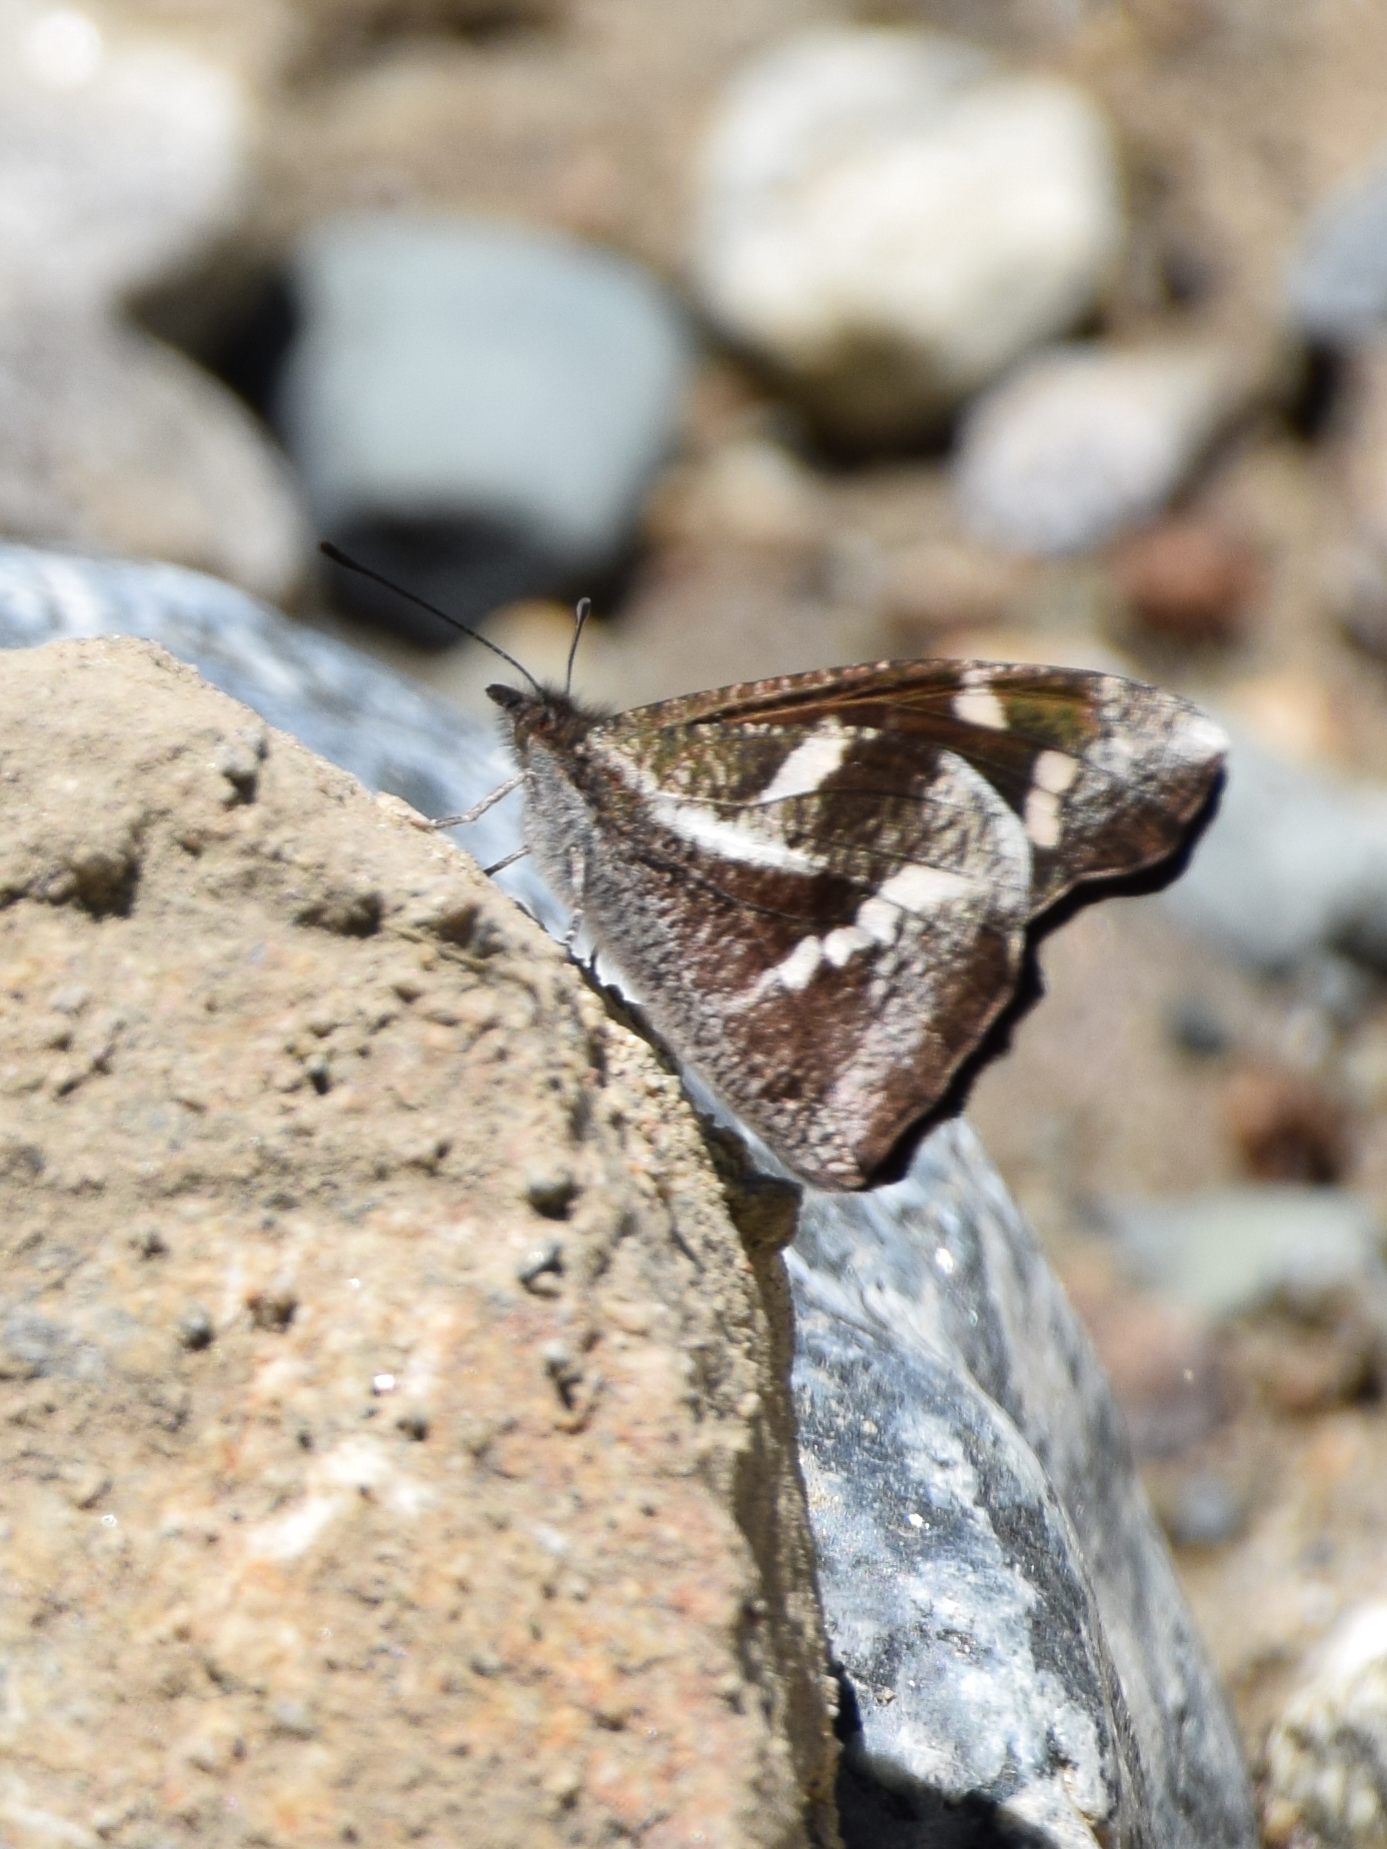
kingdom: Animalia
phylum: Arthropoda
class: Insecta
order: Lepidoptera
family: Nymphalidae
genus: Libythea
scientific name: Libythea narina
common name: Whitespotted beak
